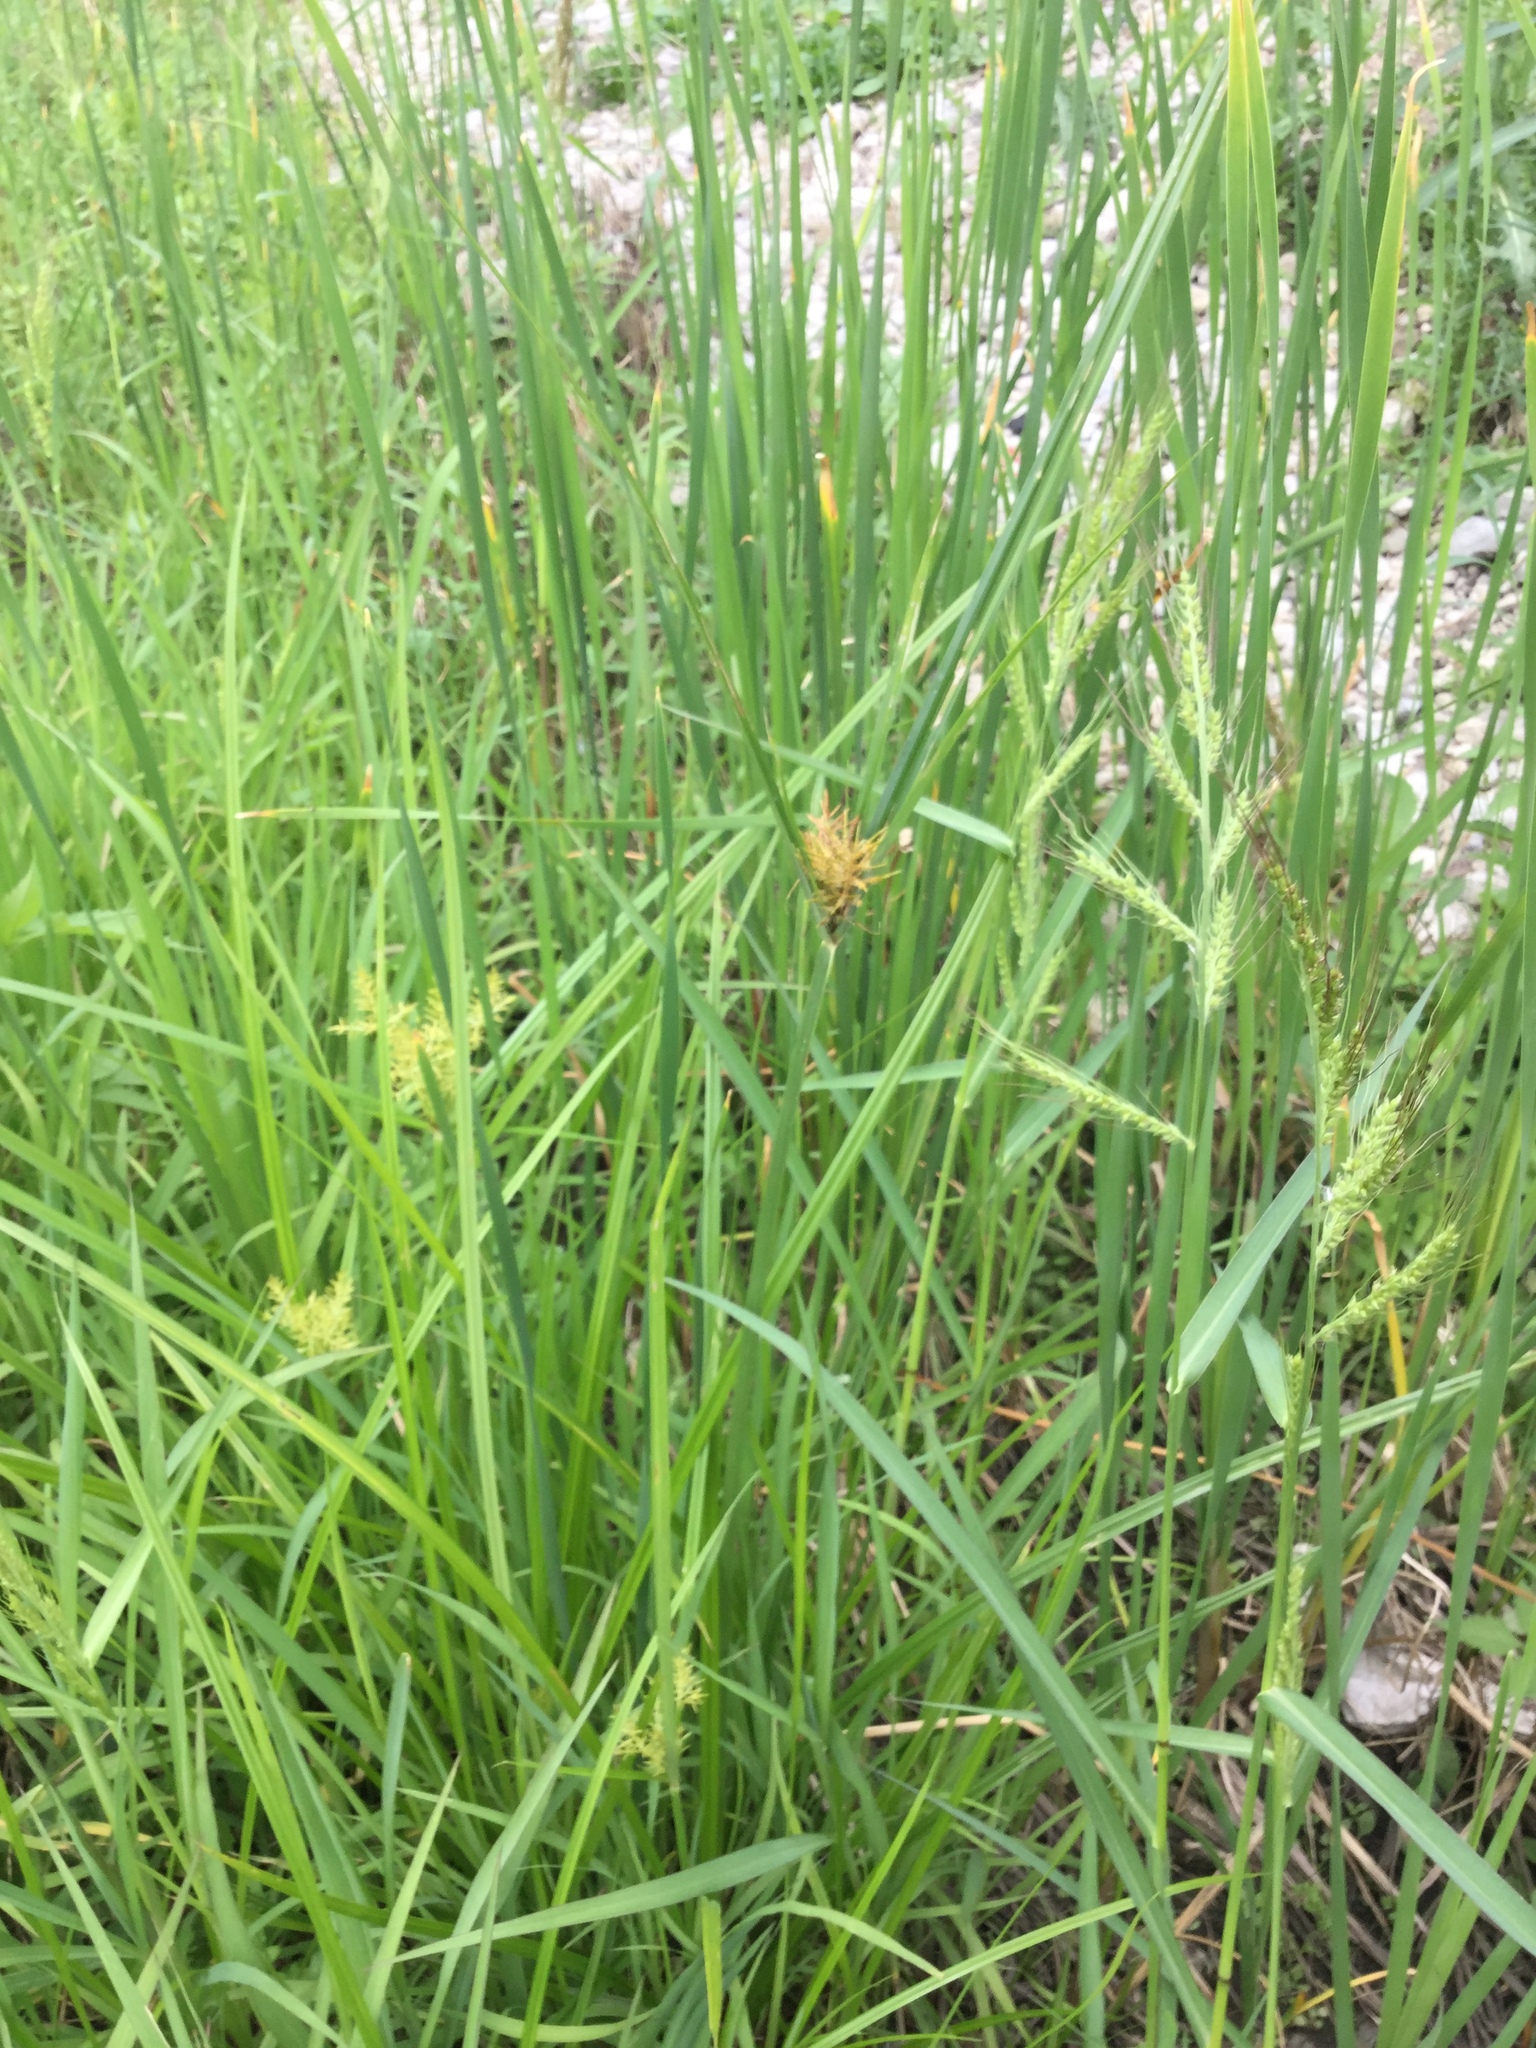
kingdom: Plantae
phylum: Tracheophyta
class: Liliopsida
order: Poales
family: Cyperaceae
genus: Cyperus
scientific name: Cyperus esculentus
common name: Yellow nutsedge
